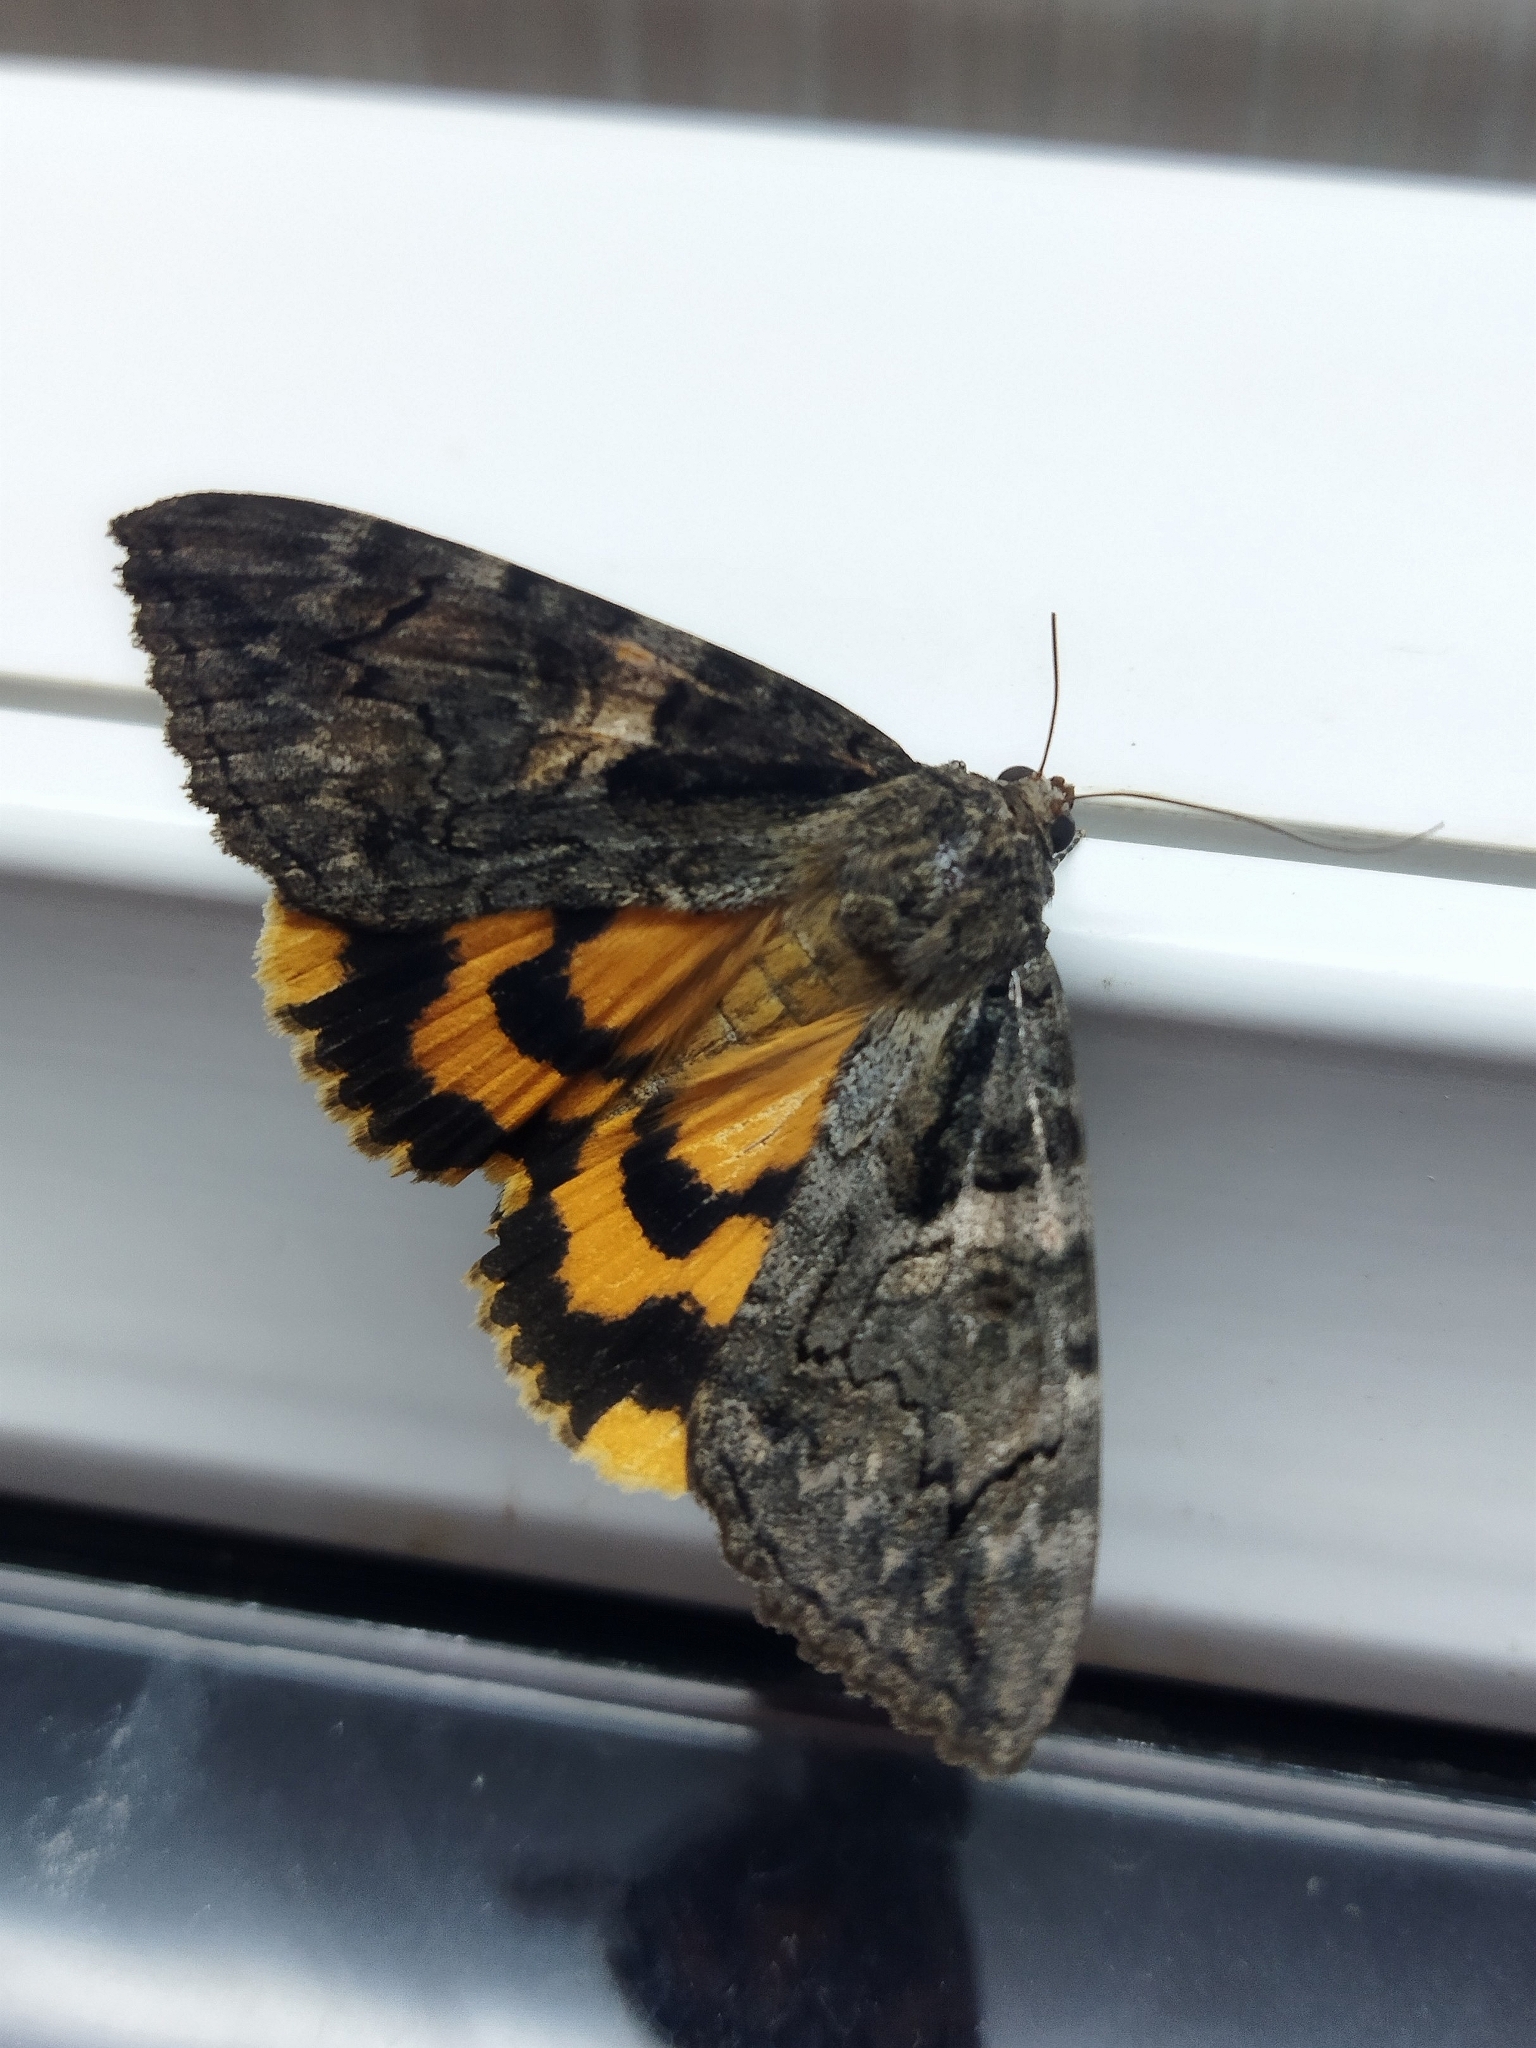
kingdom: Animalia
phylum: Arthropoda
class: Insecta
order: Lepidoptera
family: Erebidae
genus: Catocala
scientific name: Catocala helena
